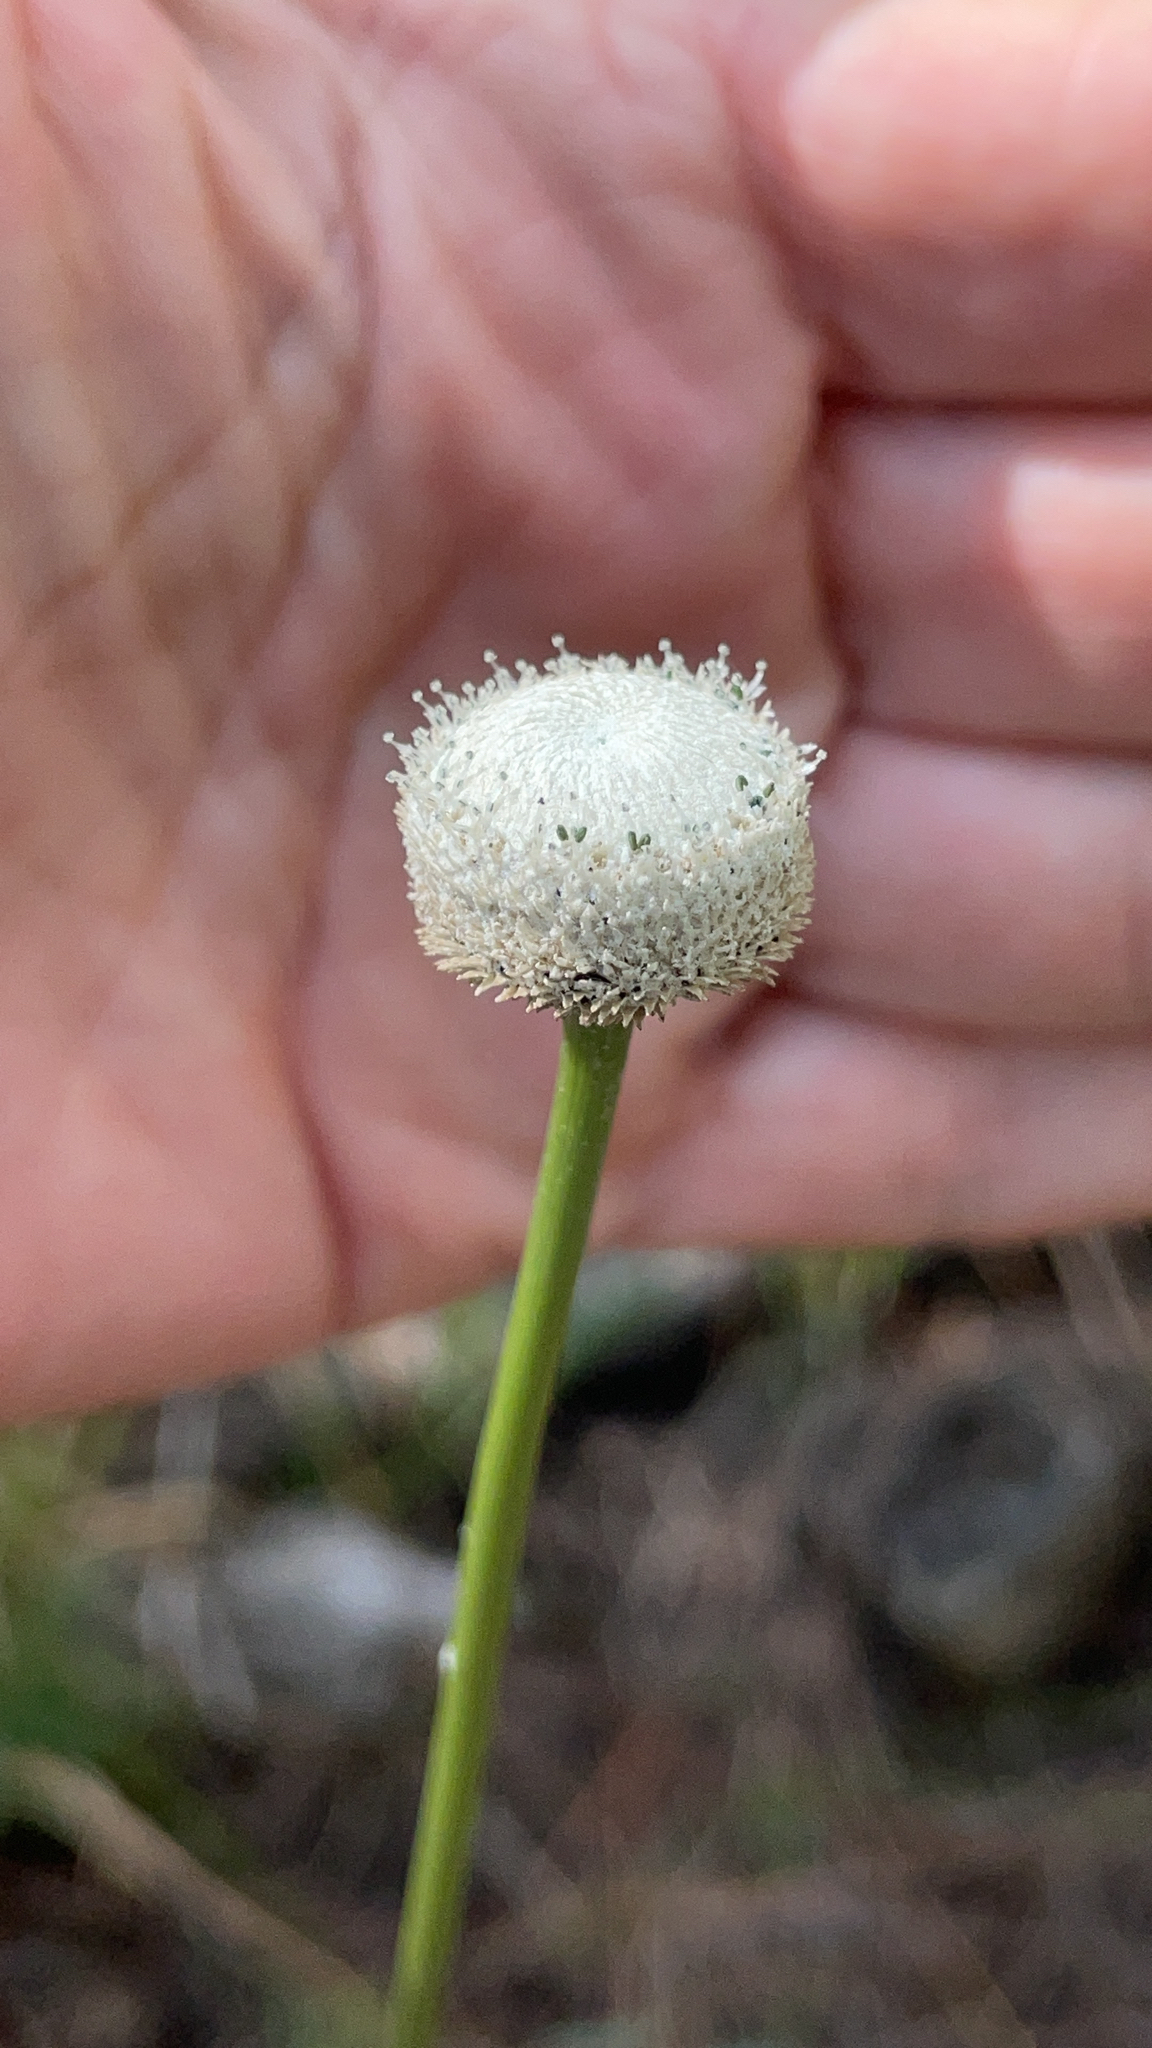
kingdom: Plantae
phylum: Tracheophyta
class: Liliopsida
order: Poales
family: Eriocaulaceae
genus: Eriocaulon
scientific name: Eriocaulon decangulare
